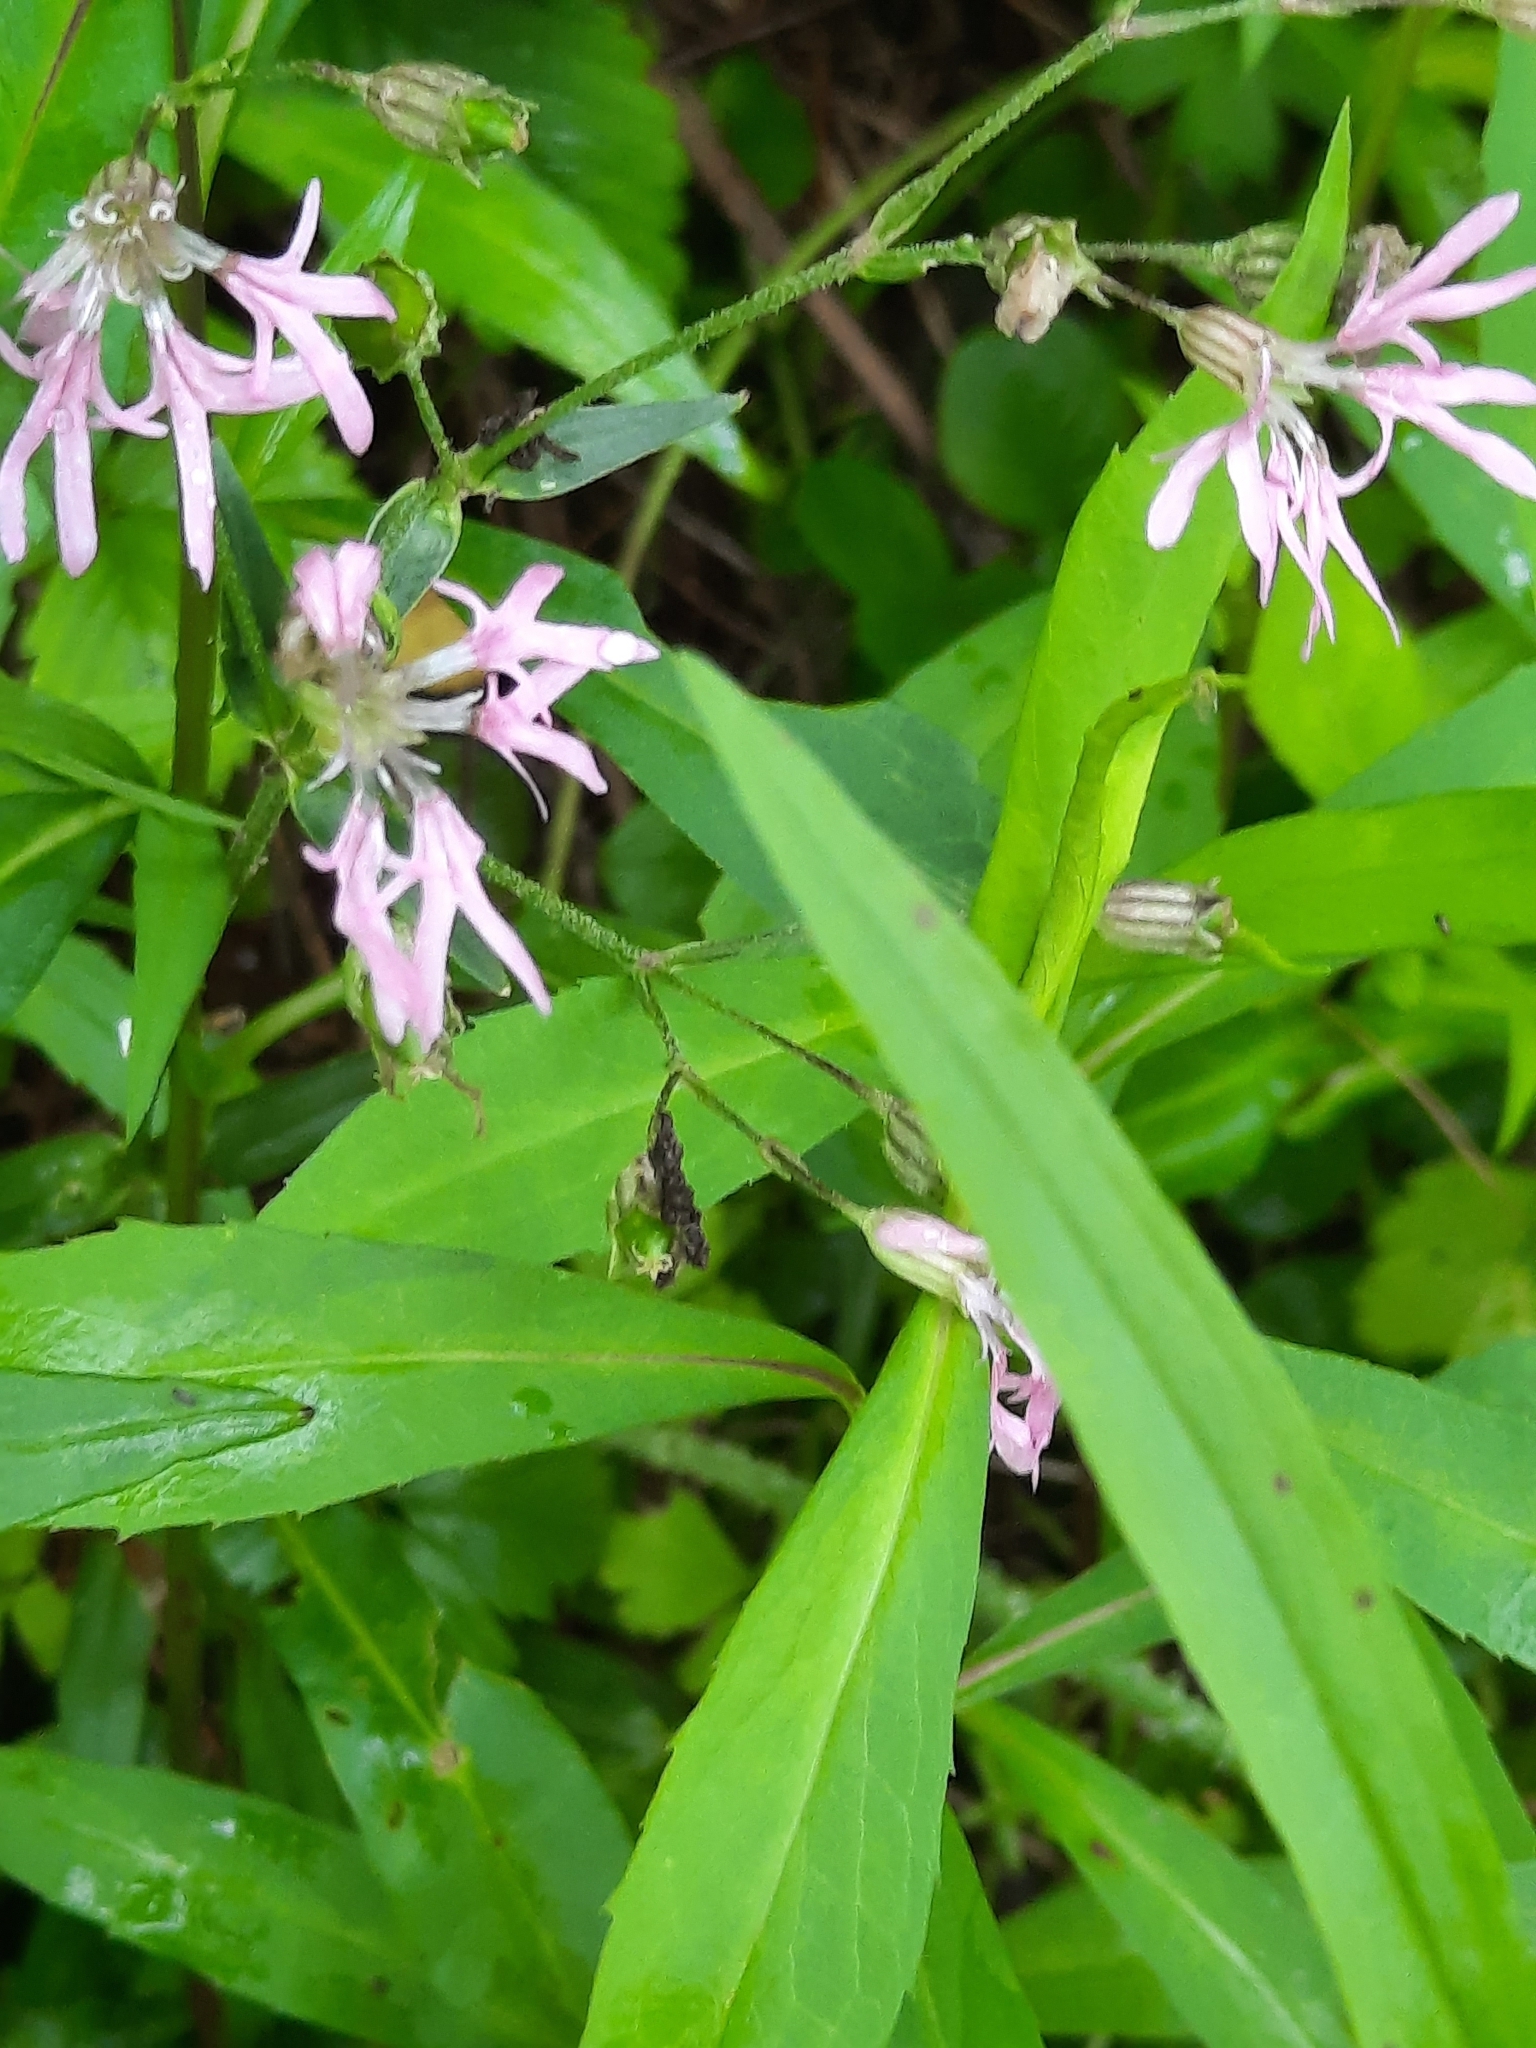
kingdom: Plantae
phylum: Tracheophyta
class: Magnoliopsida
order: Caryophyllales
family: Caryophyllaceae
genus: Silene
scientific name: Silene flos-cuculi
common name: Ragged-robin
